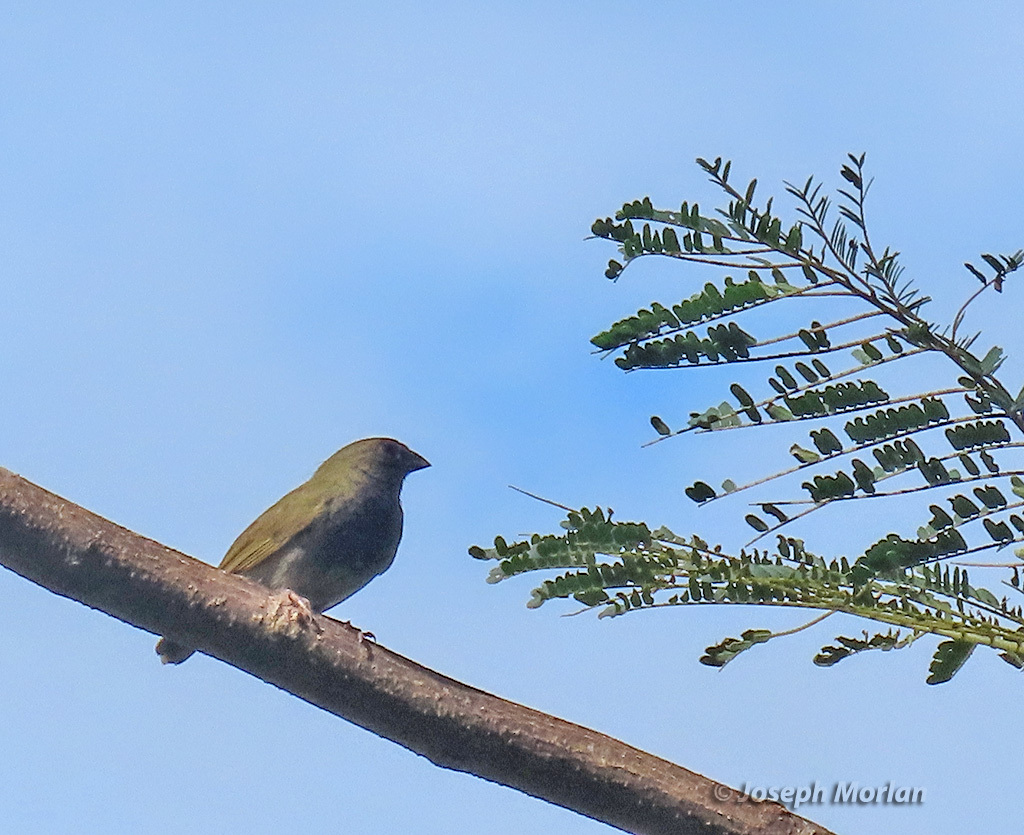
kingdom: Animalia
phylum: Chordata
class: Aves
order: Passeriformes
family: Thraupidae
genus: Melanospiza
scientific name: Melanospiza bicolor
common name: Black-faced grassquit
